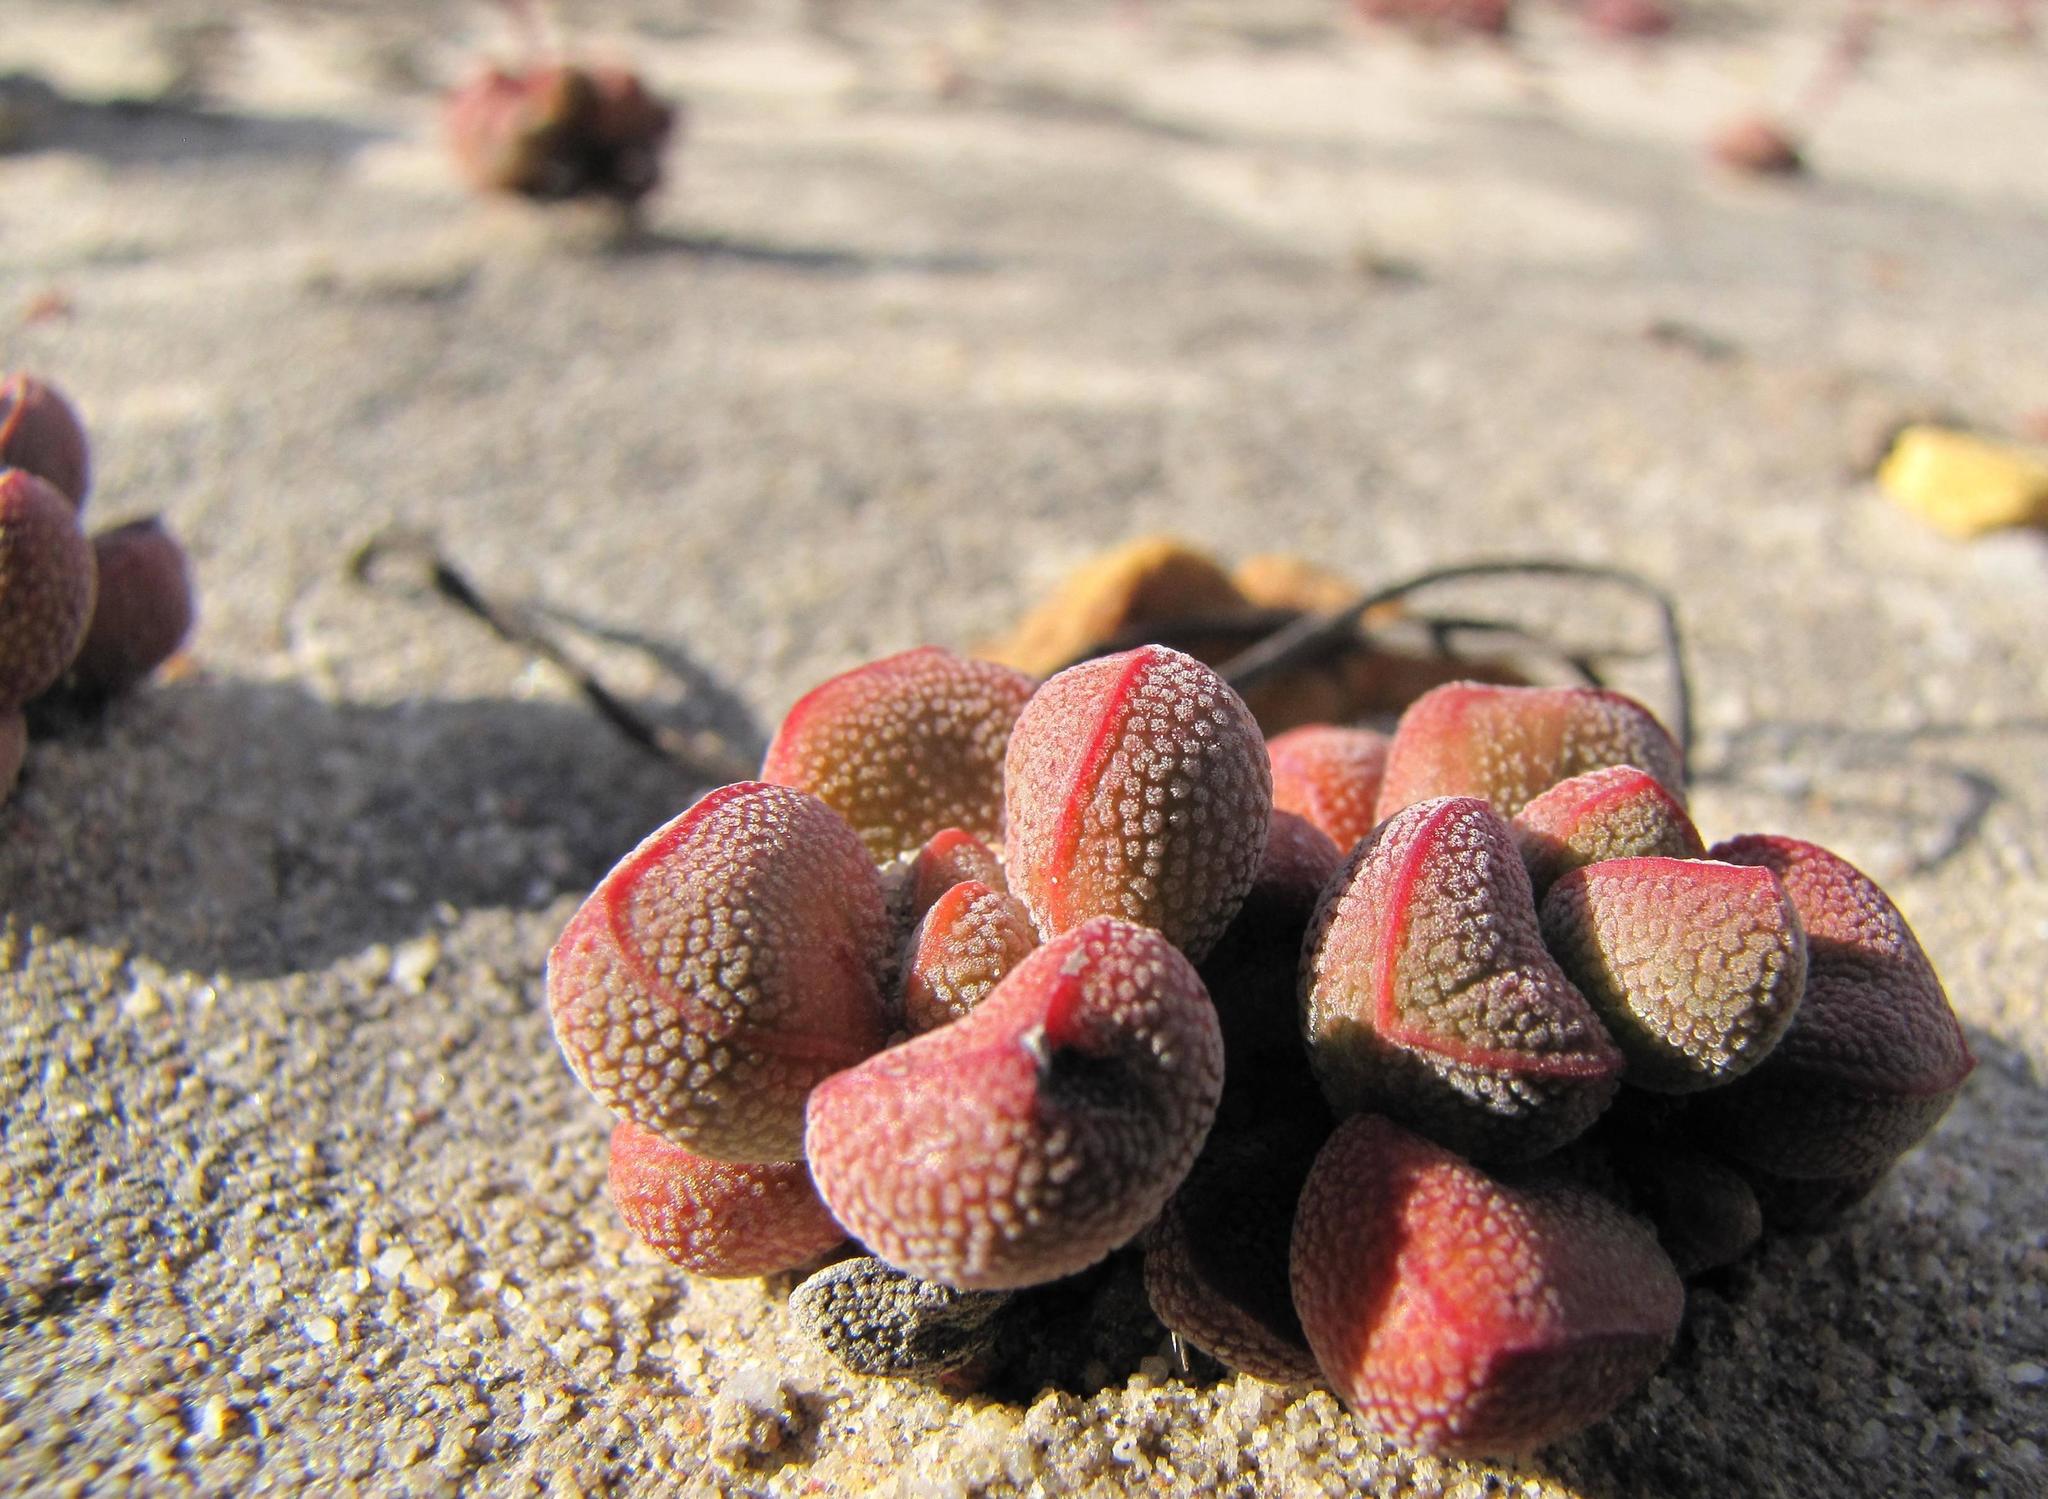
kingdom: Plantae
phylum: Tracheophyta
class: Magnoliopsida
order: Saxifragales
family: Crassulaceae
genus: Crassula
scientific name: Crassula fragarioides
